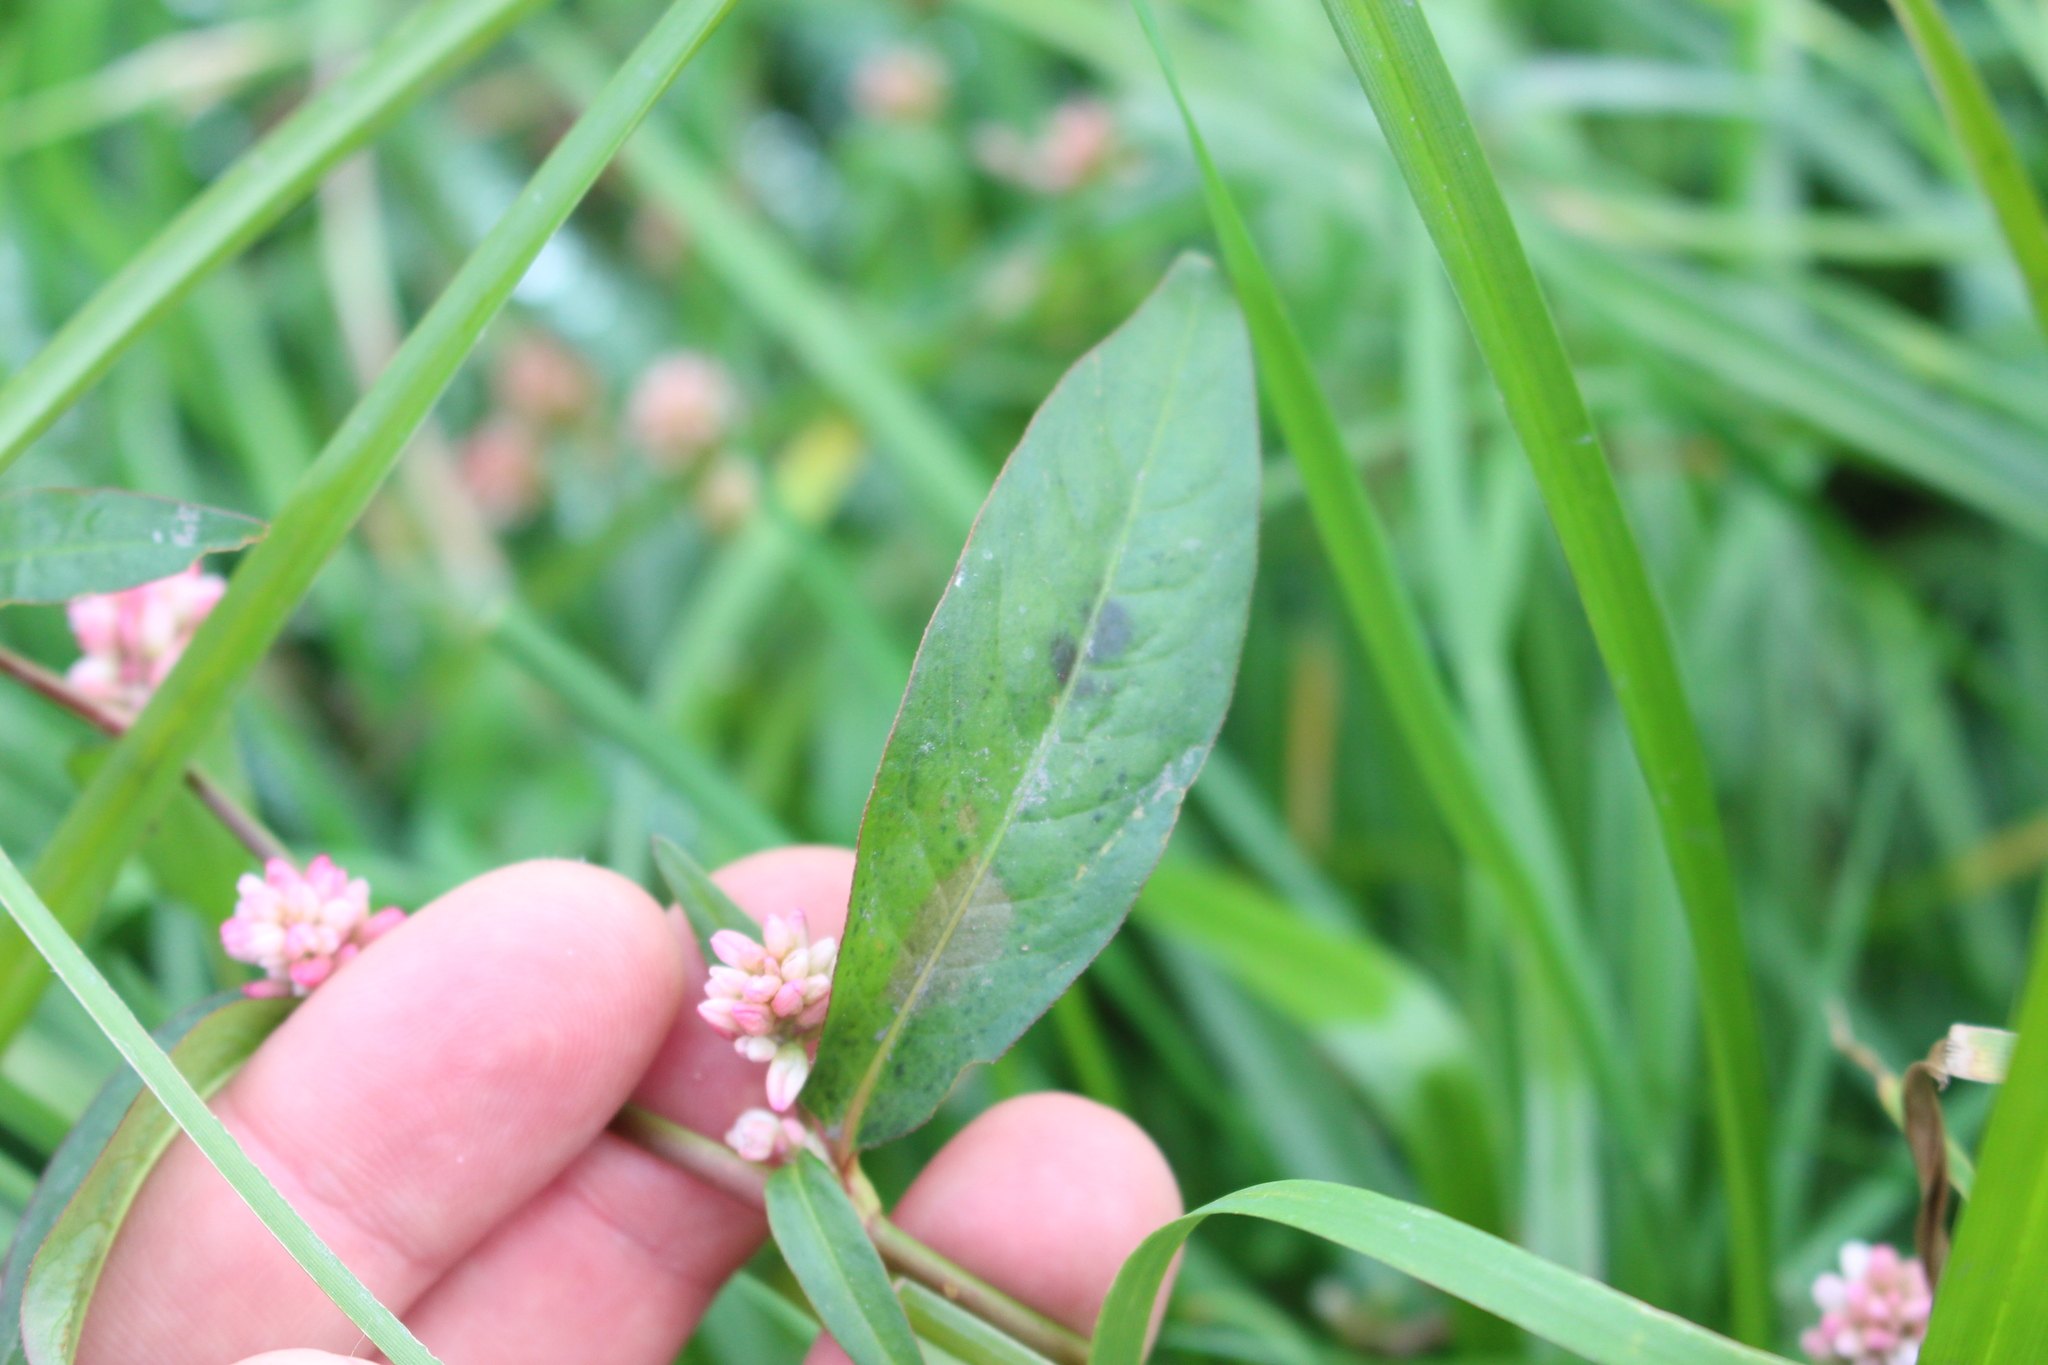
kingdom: Plantae
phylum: Tracheophyta
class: Magnoliopsida
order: Caryophyllales
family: Polygonaceae
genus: Persicaria
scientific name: Persicaria maculosa
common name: Redshank
